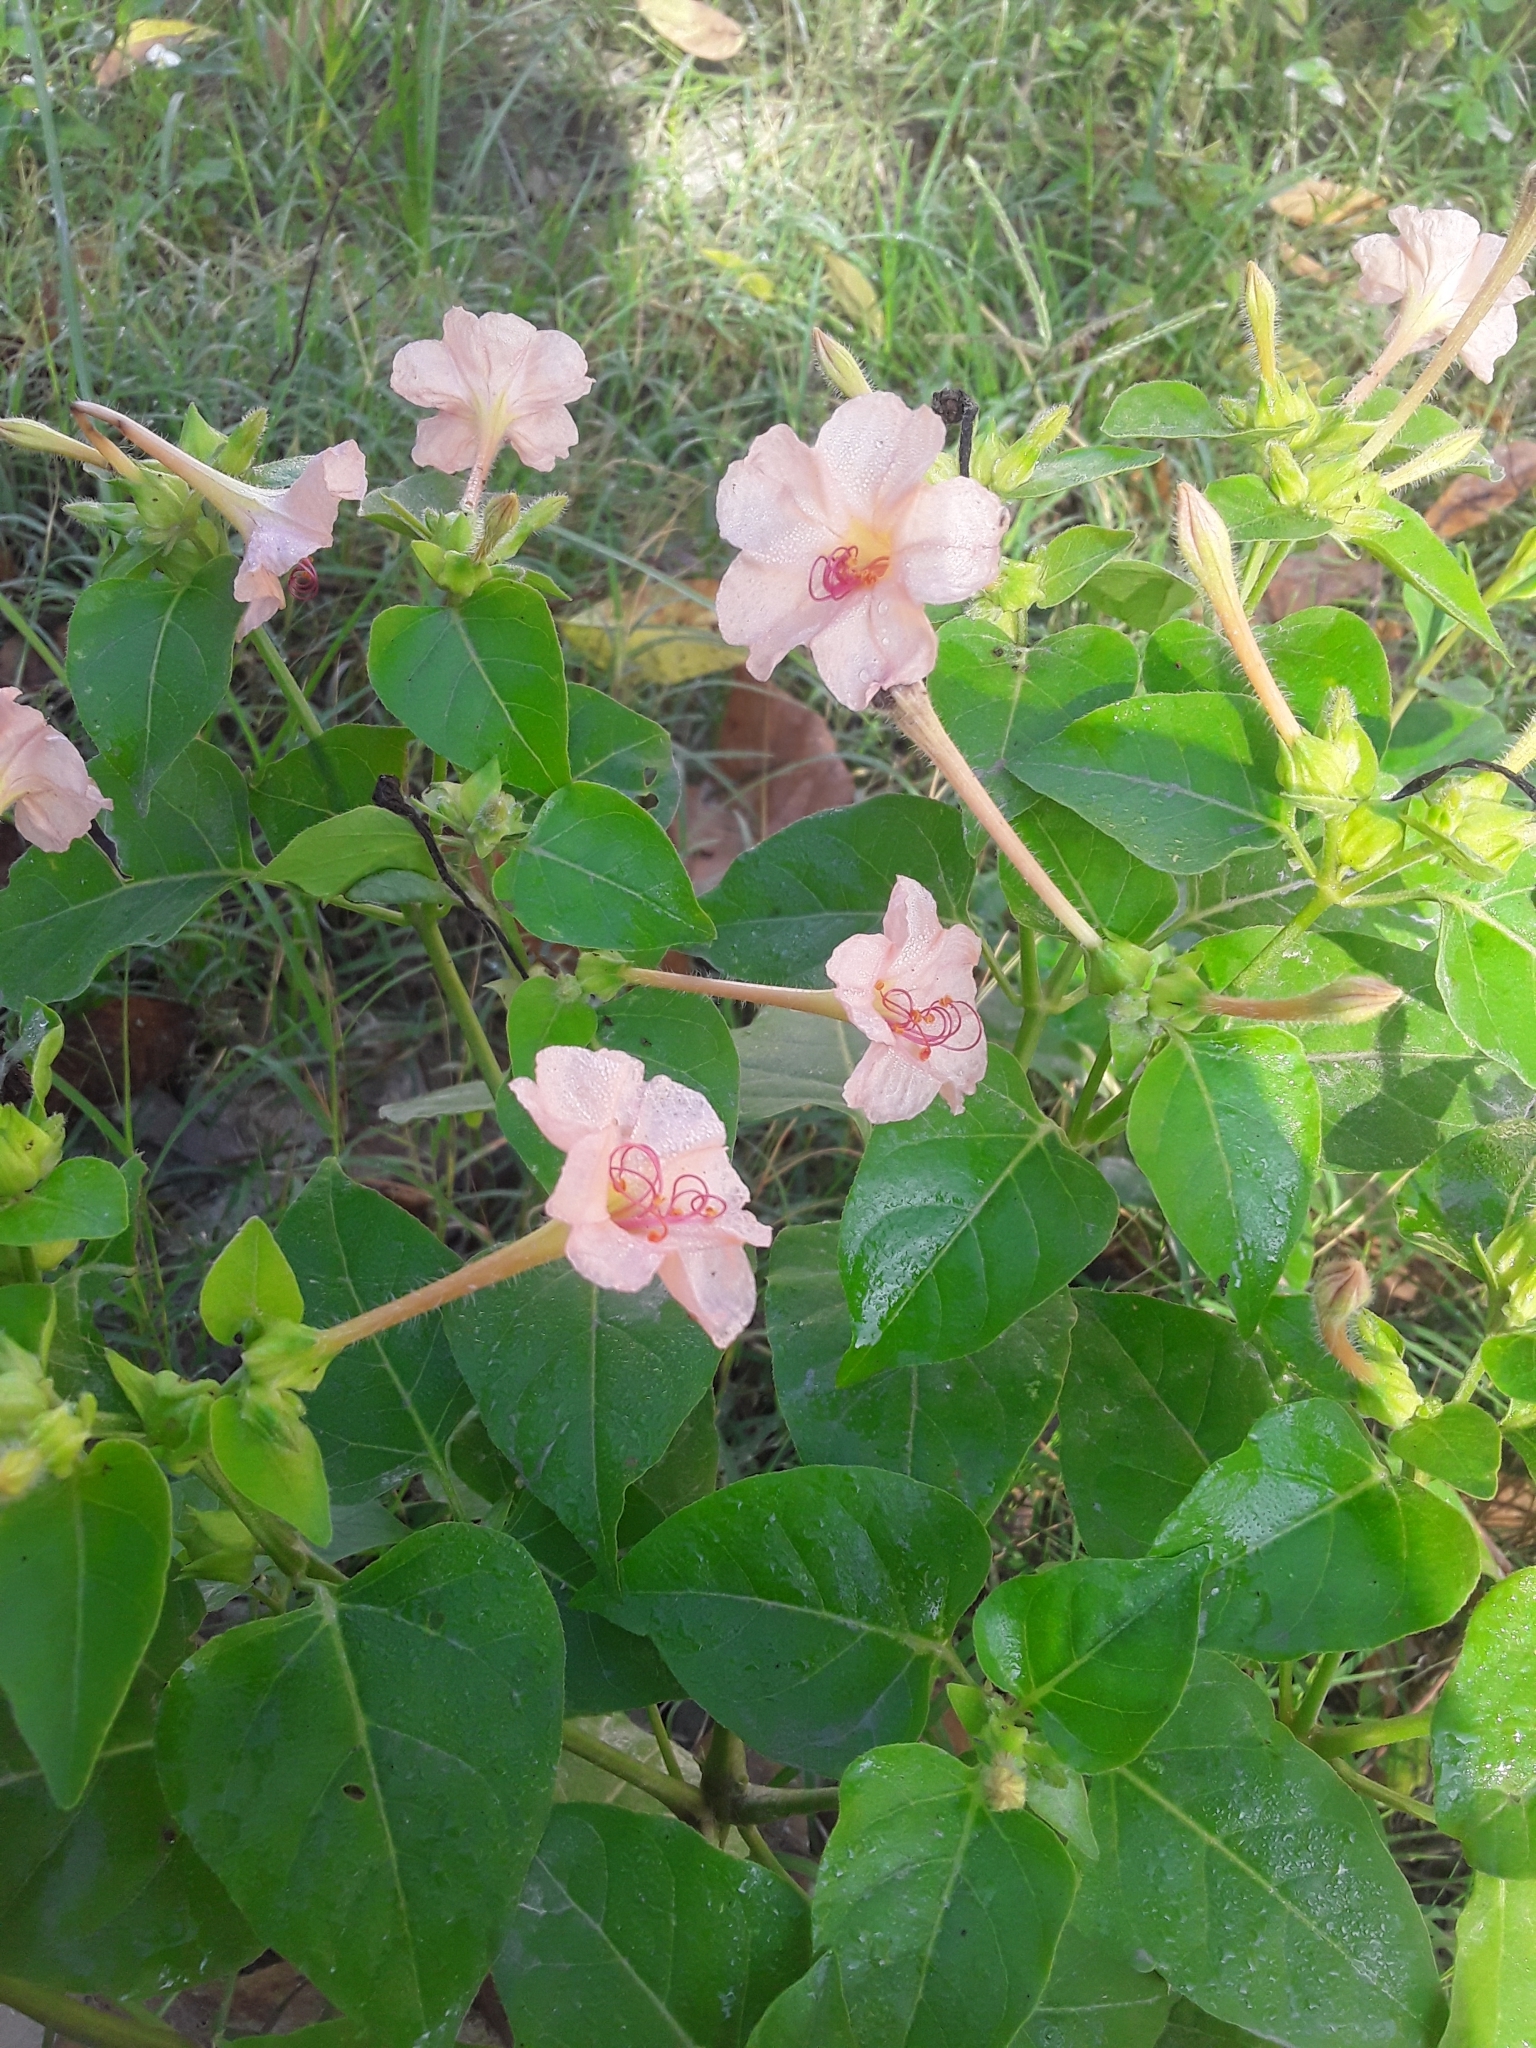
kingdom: Plantae
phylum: Tracheophyta
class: Magnoliopsida
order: Caryophyllales
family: Nyctaginaceae
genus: Mirabilis
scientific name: Mirabilis jalapa
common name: Marvel-of-peru
